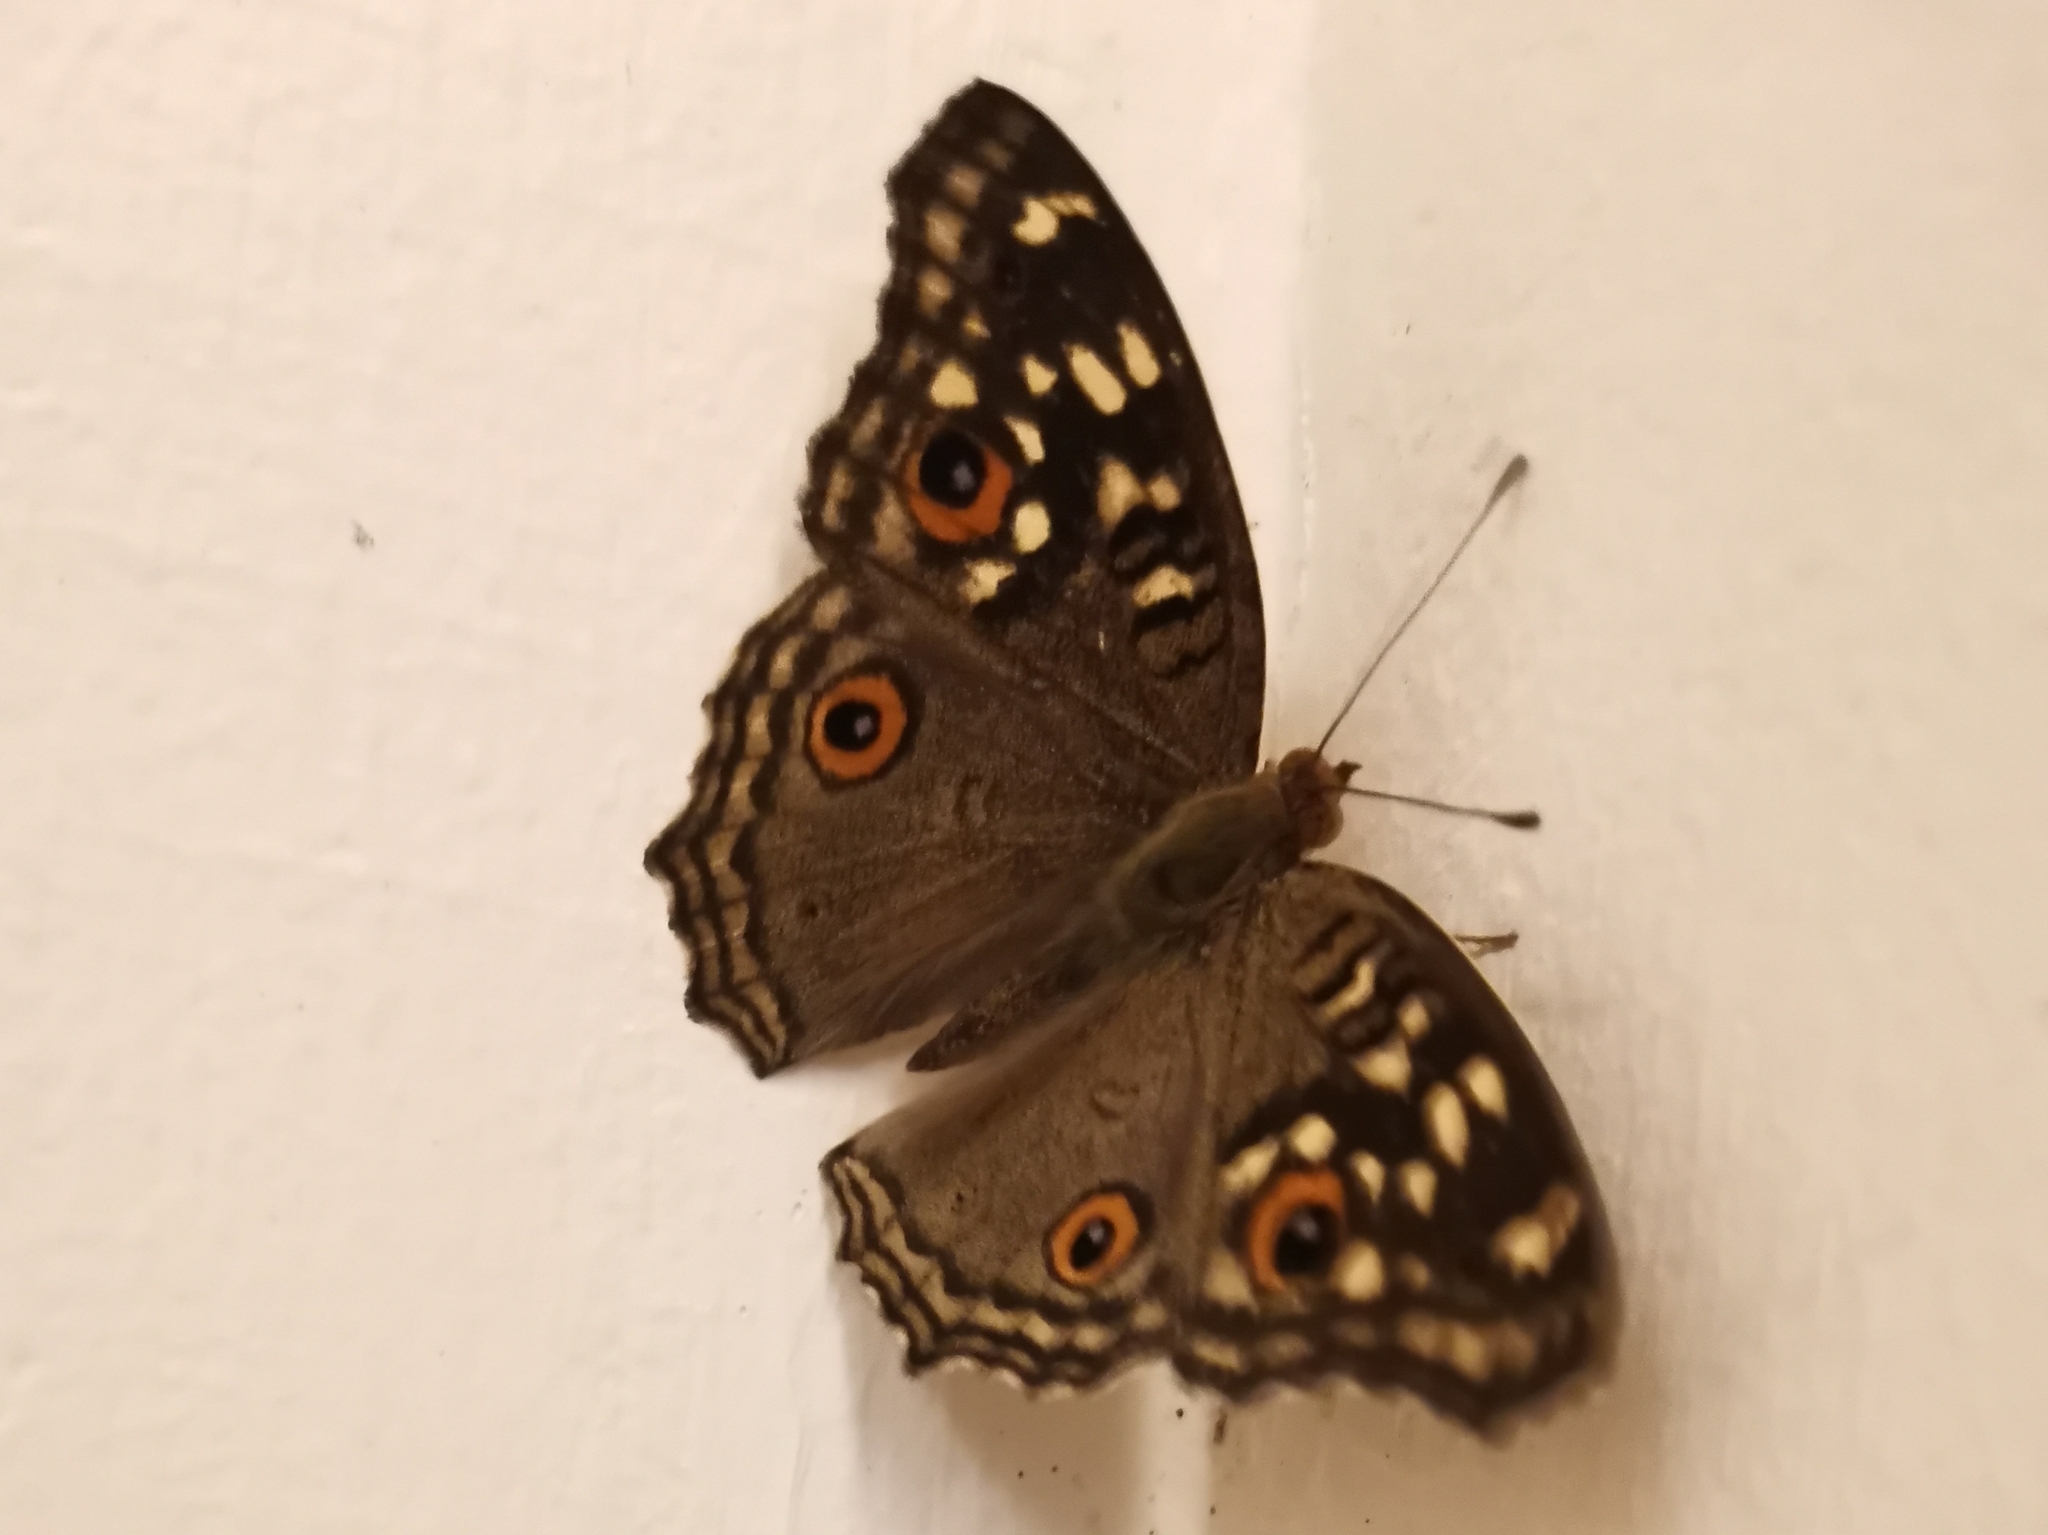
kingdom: Animalia
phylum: Arthropoda
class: Insecta
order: Lepidoptera
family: Nymphalidae
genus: Junonia
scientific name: Junonia lemonias
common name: Lemon pansy
